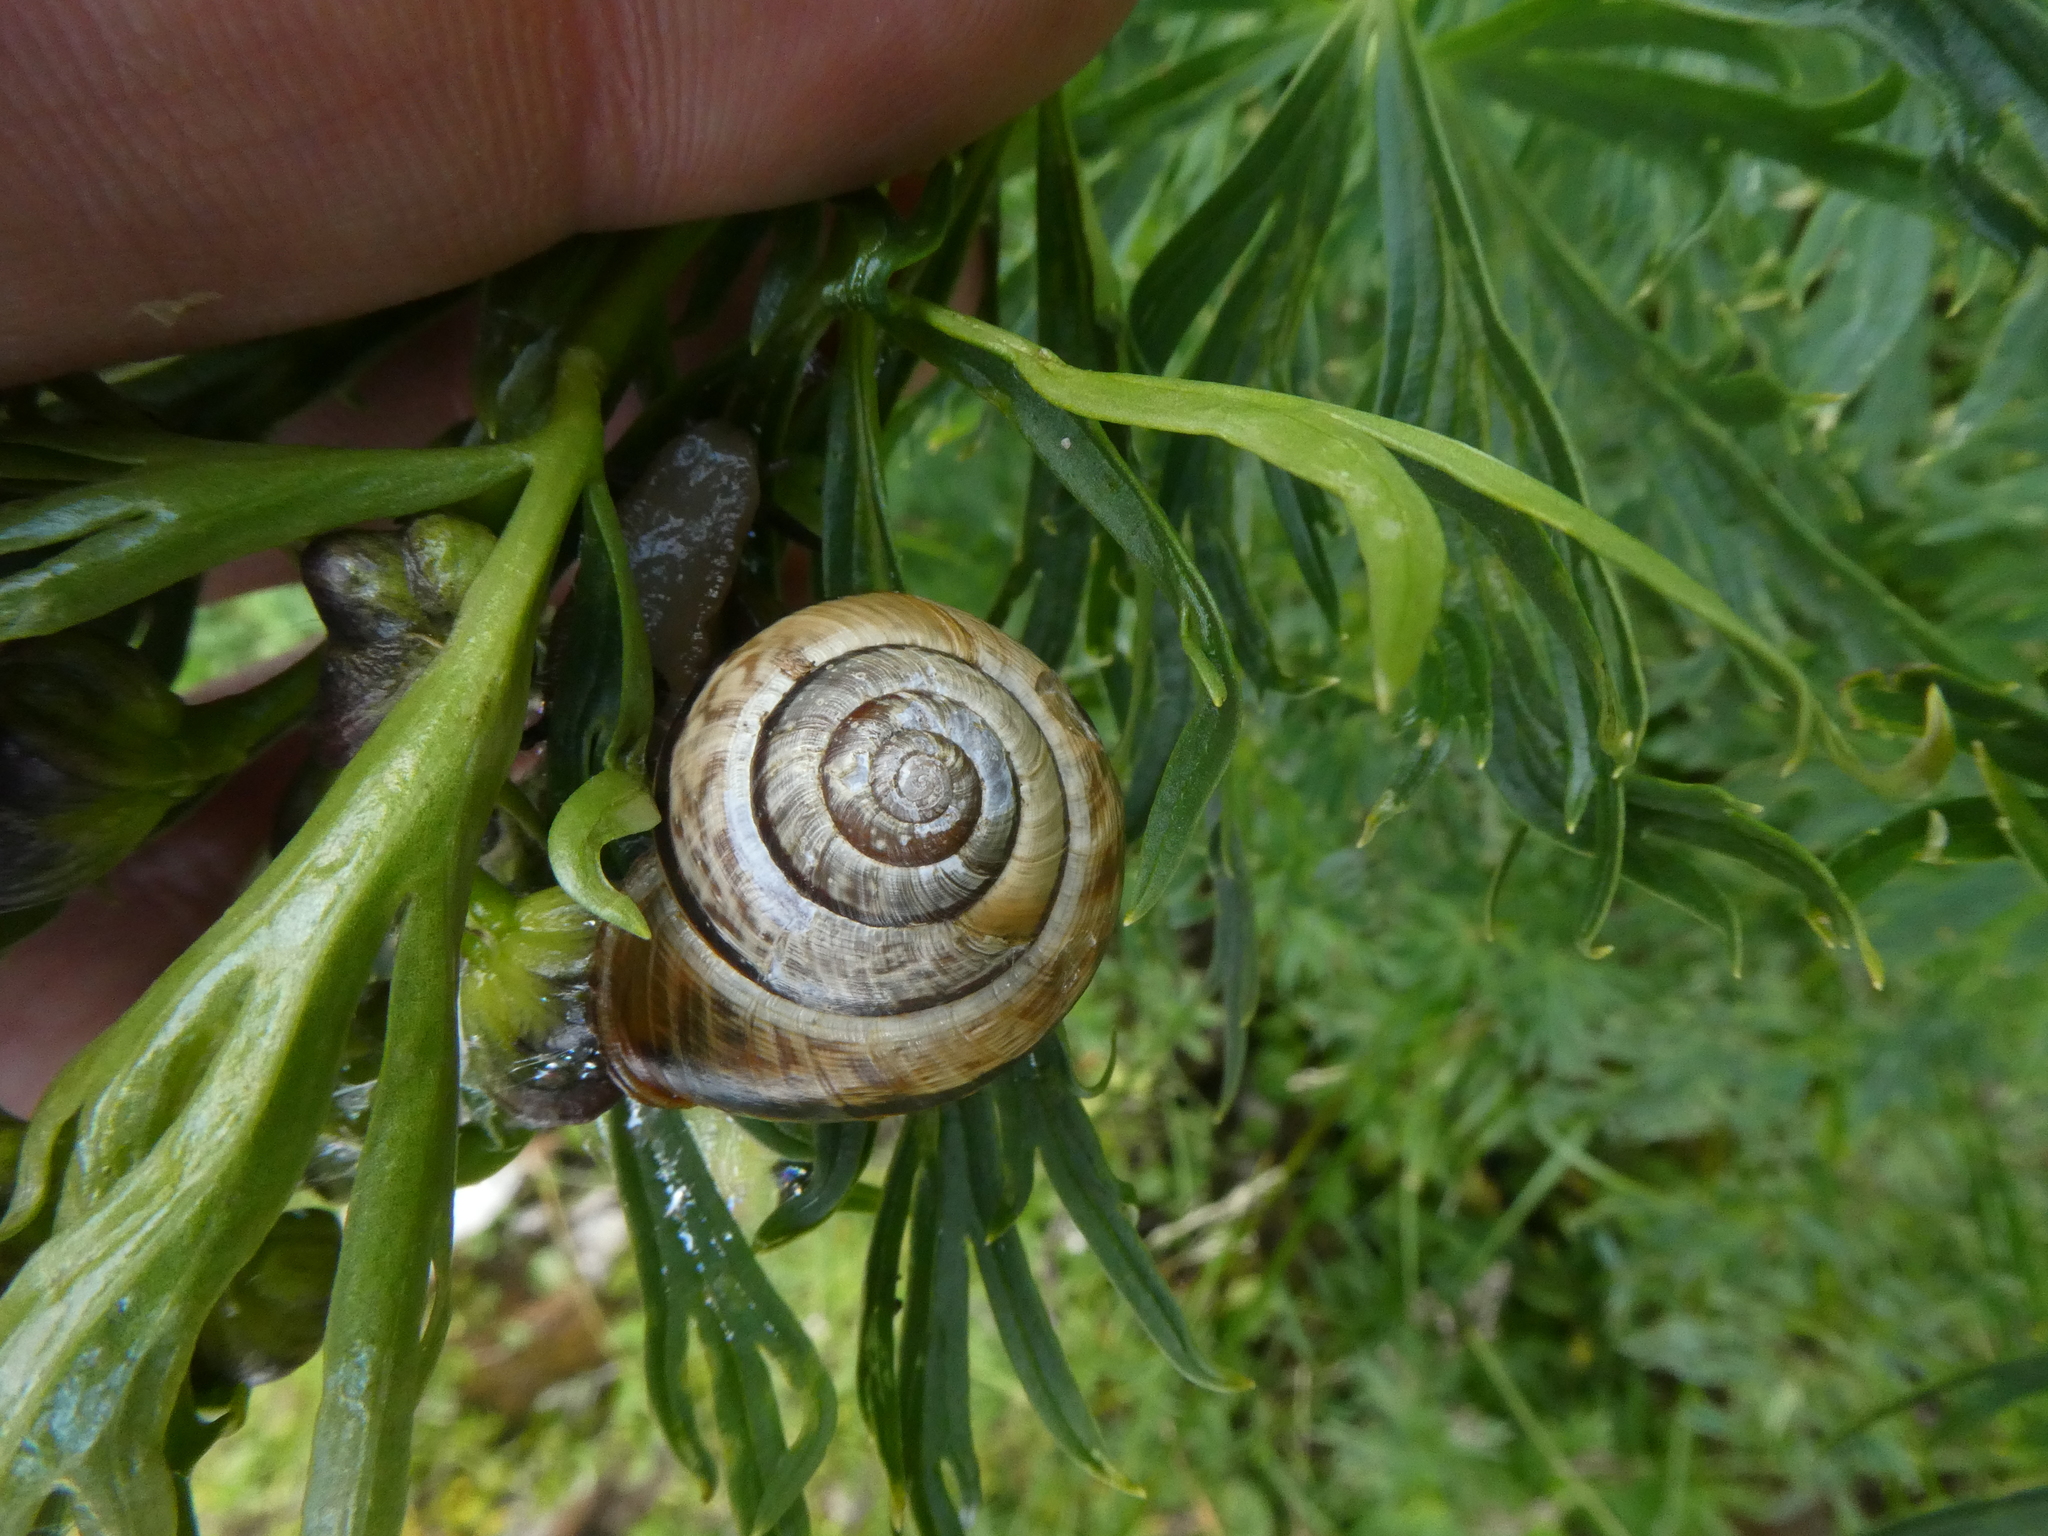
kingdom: Animalia
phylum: Mollusca
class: Gastropoda
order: Stylommatophora
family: Helicidae
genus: Arianta
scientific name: Arianta arbustorum
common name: Copse snail
